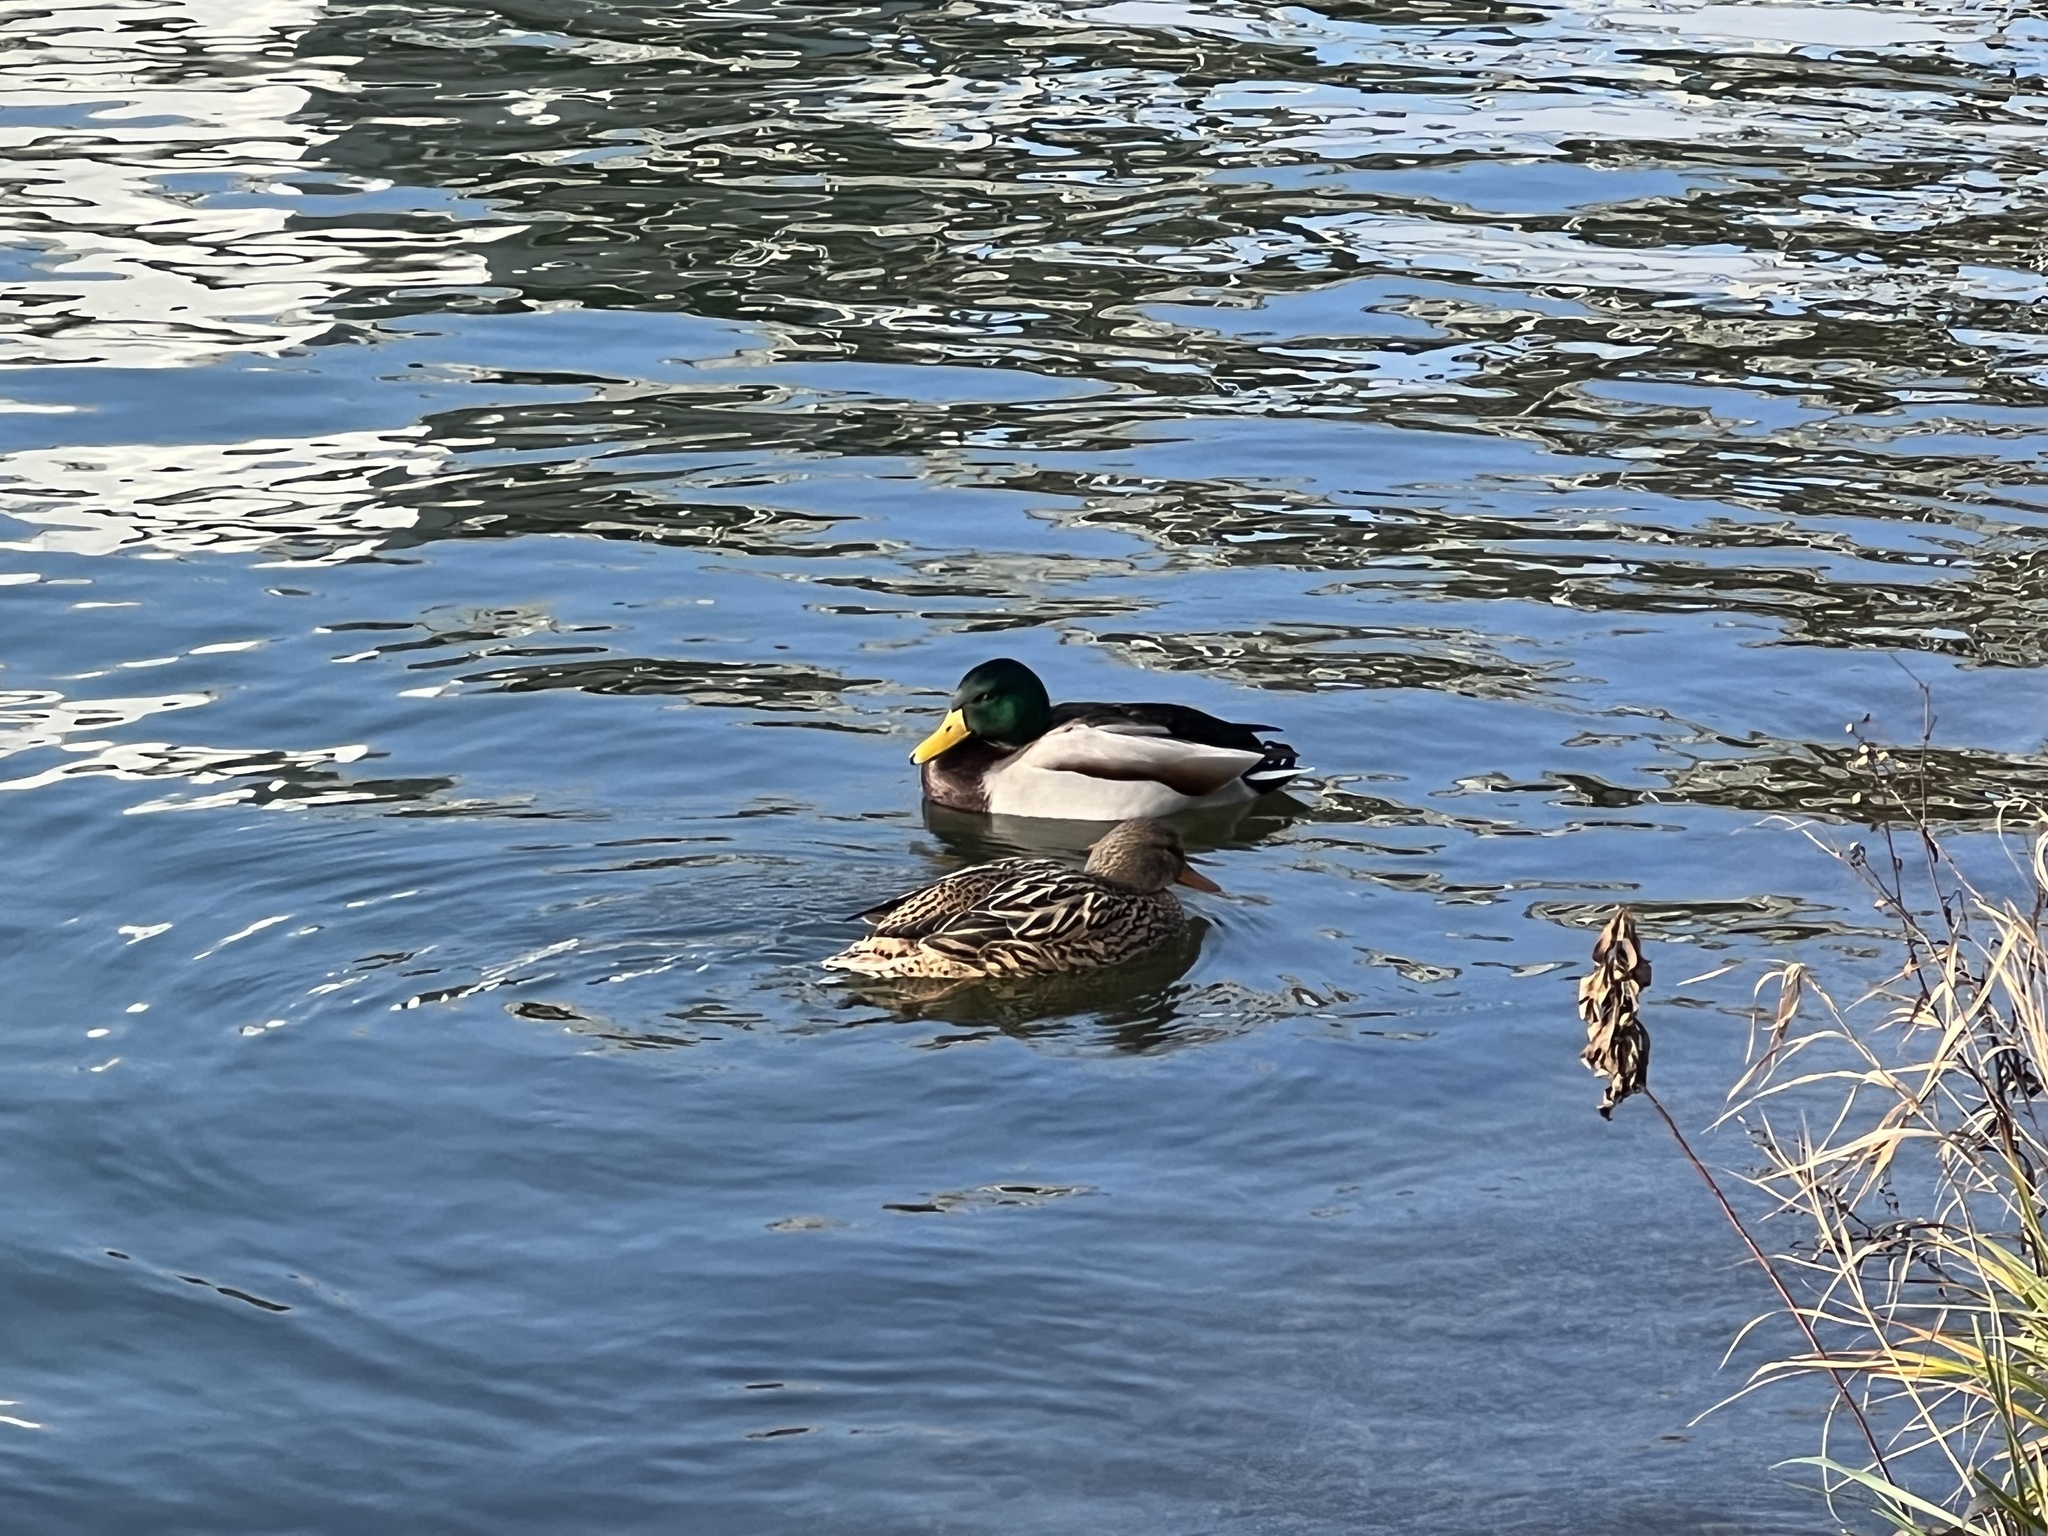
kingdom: Animalia
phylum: Chordata
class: Aves
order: Anseriformes
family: Anatidae
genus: Anas
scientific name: Anas platyrhynchos
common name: Mallard
